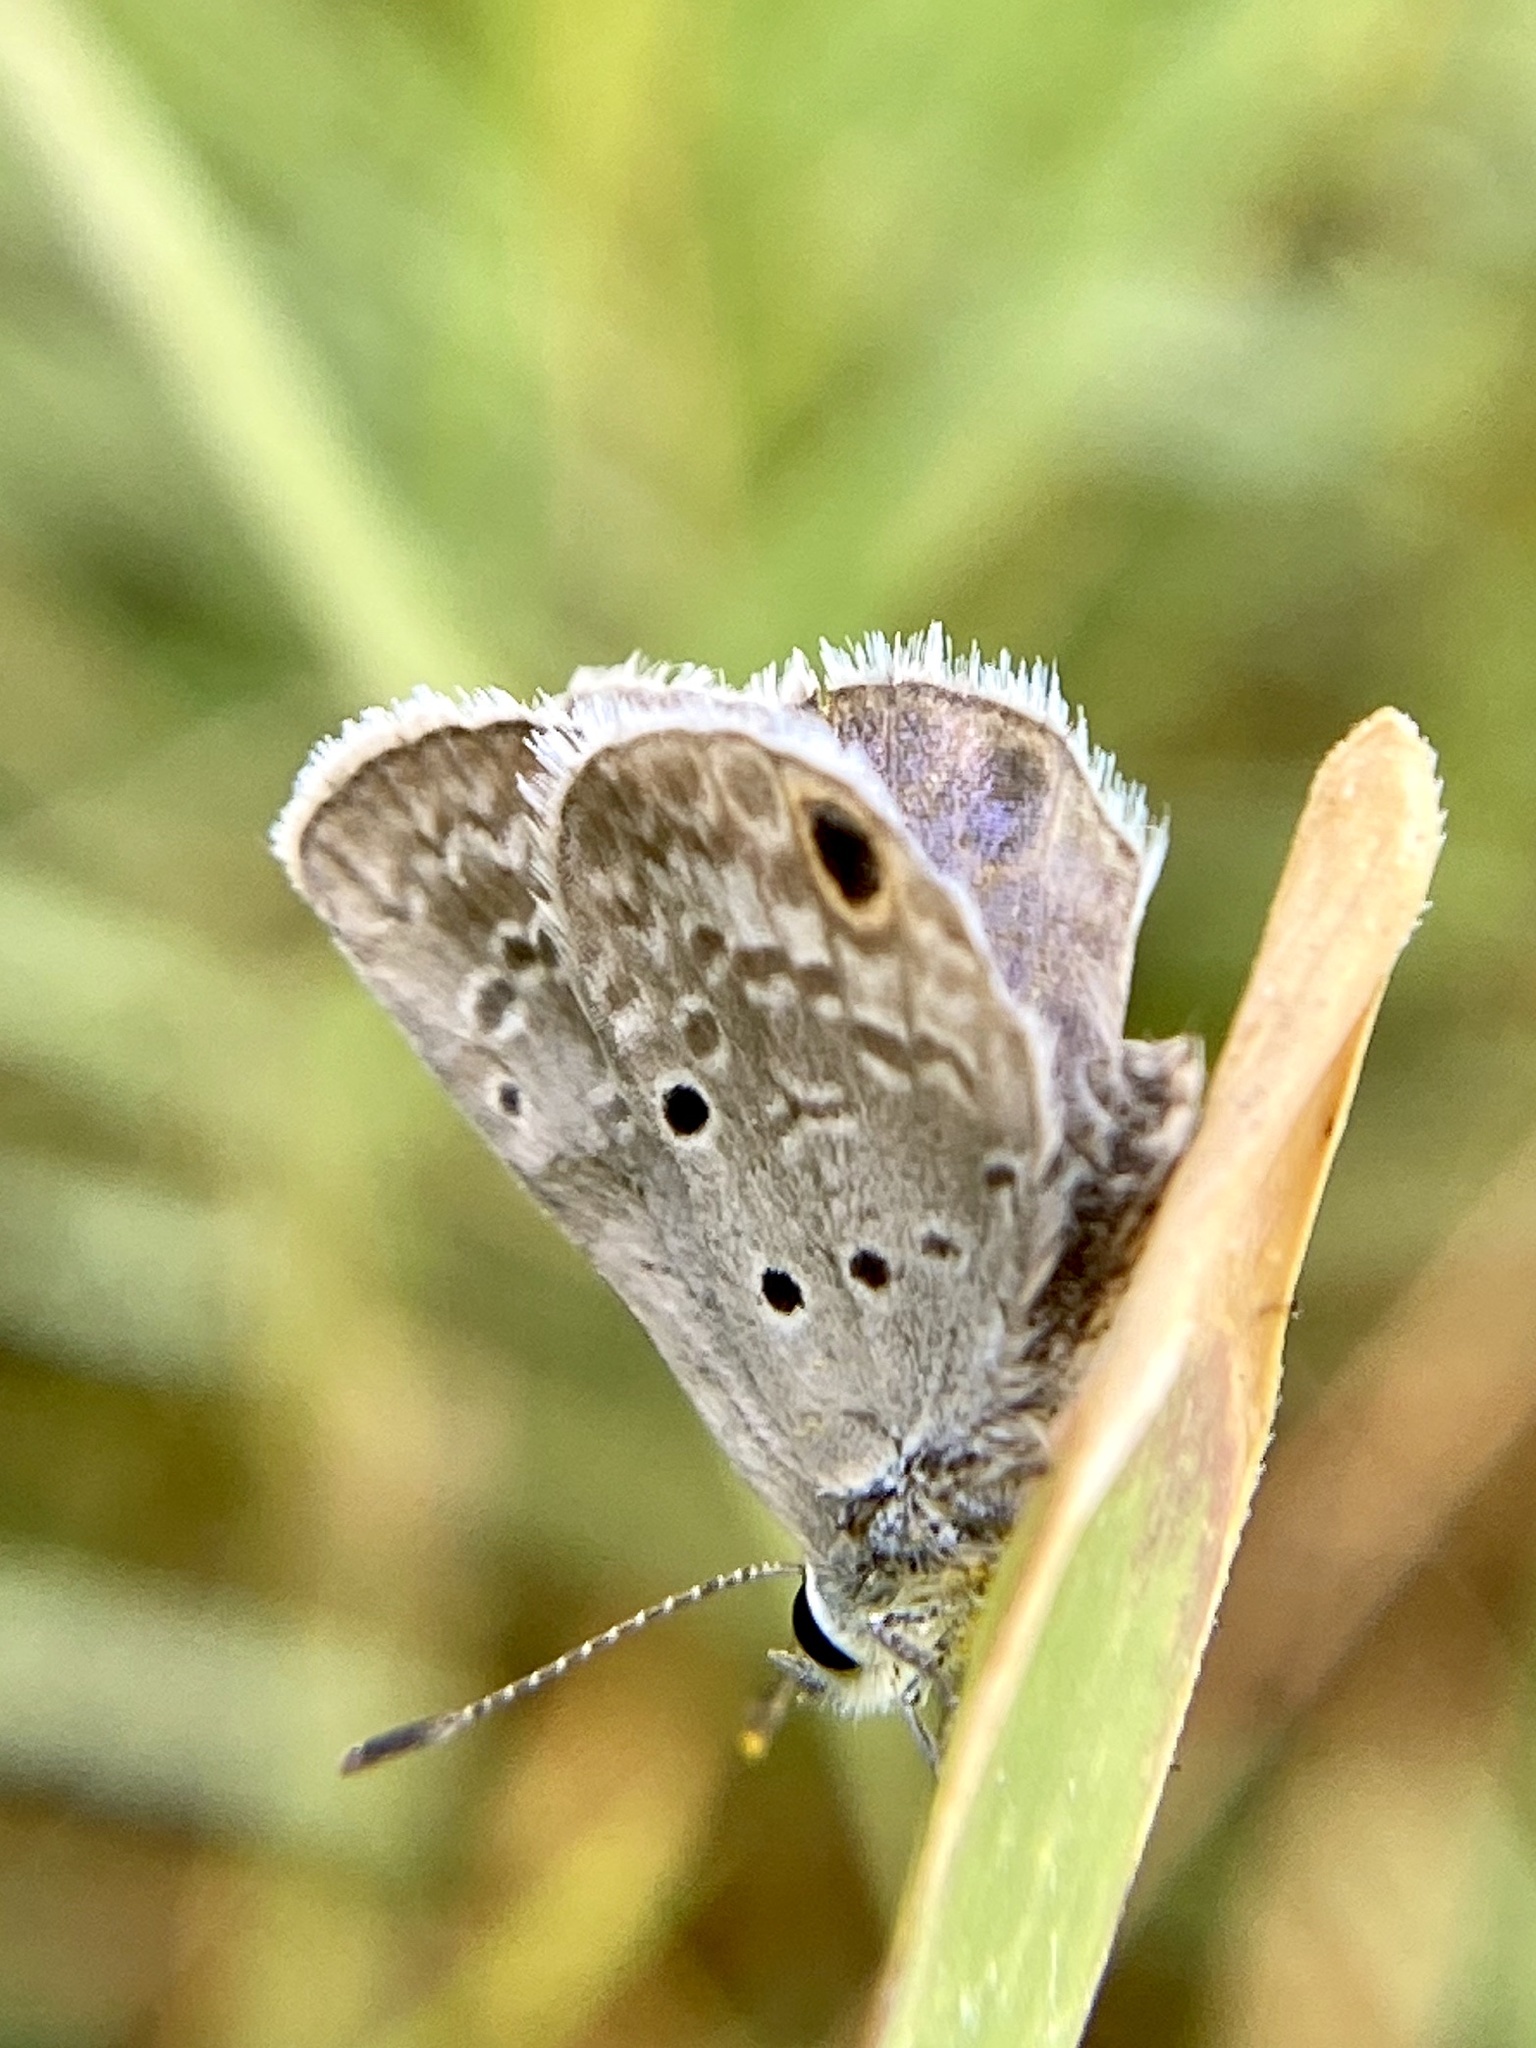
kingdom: Animalia
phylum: Arthropoda
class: Insecta
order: Lepidoptera
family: Lycaenidae
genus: Hemiargus
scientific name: Hemiargus ceraunus
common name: Ceraunus blue
